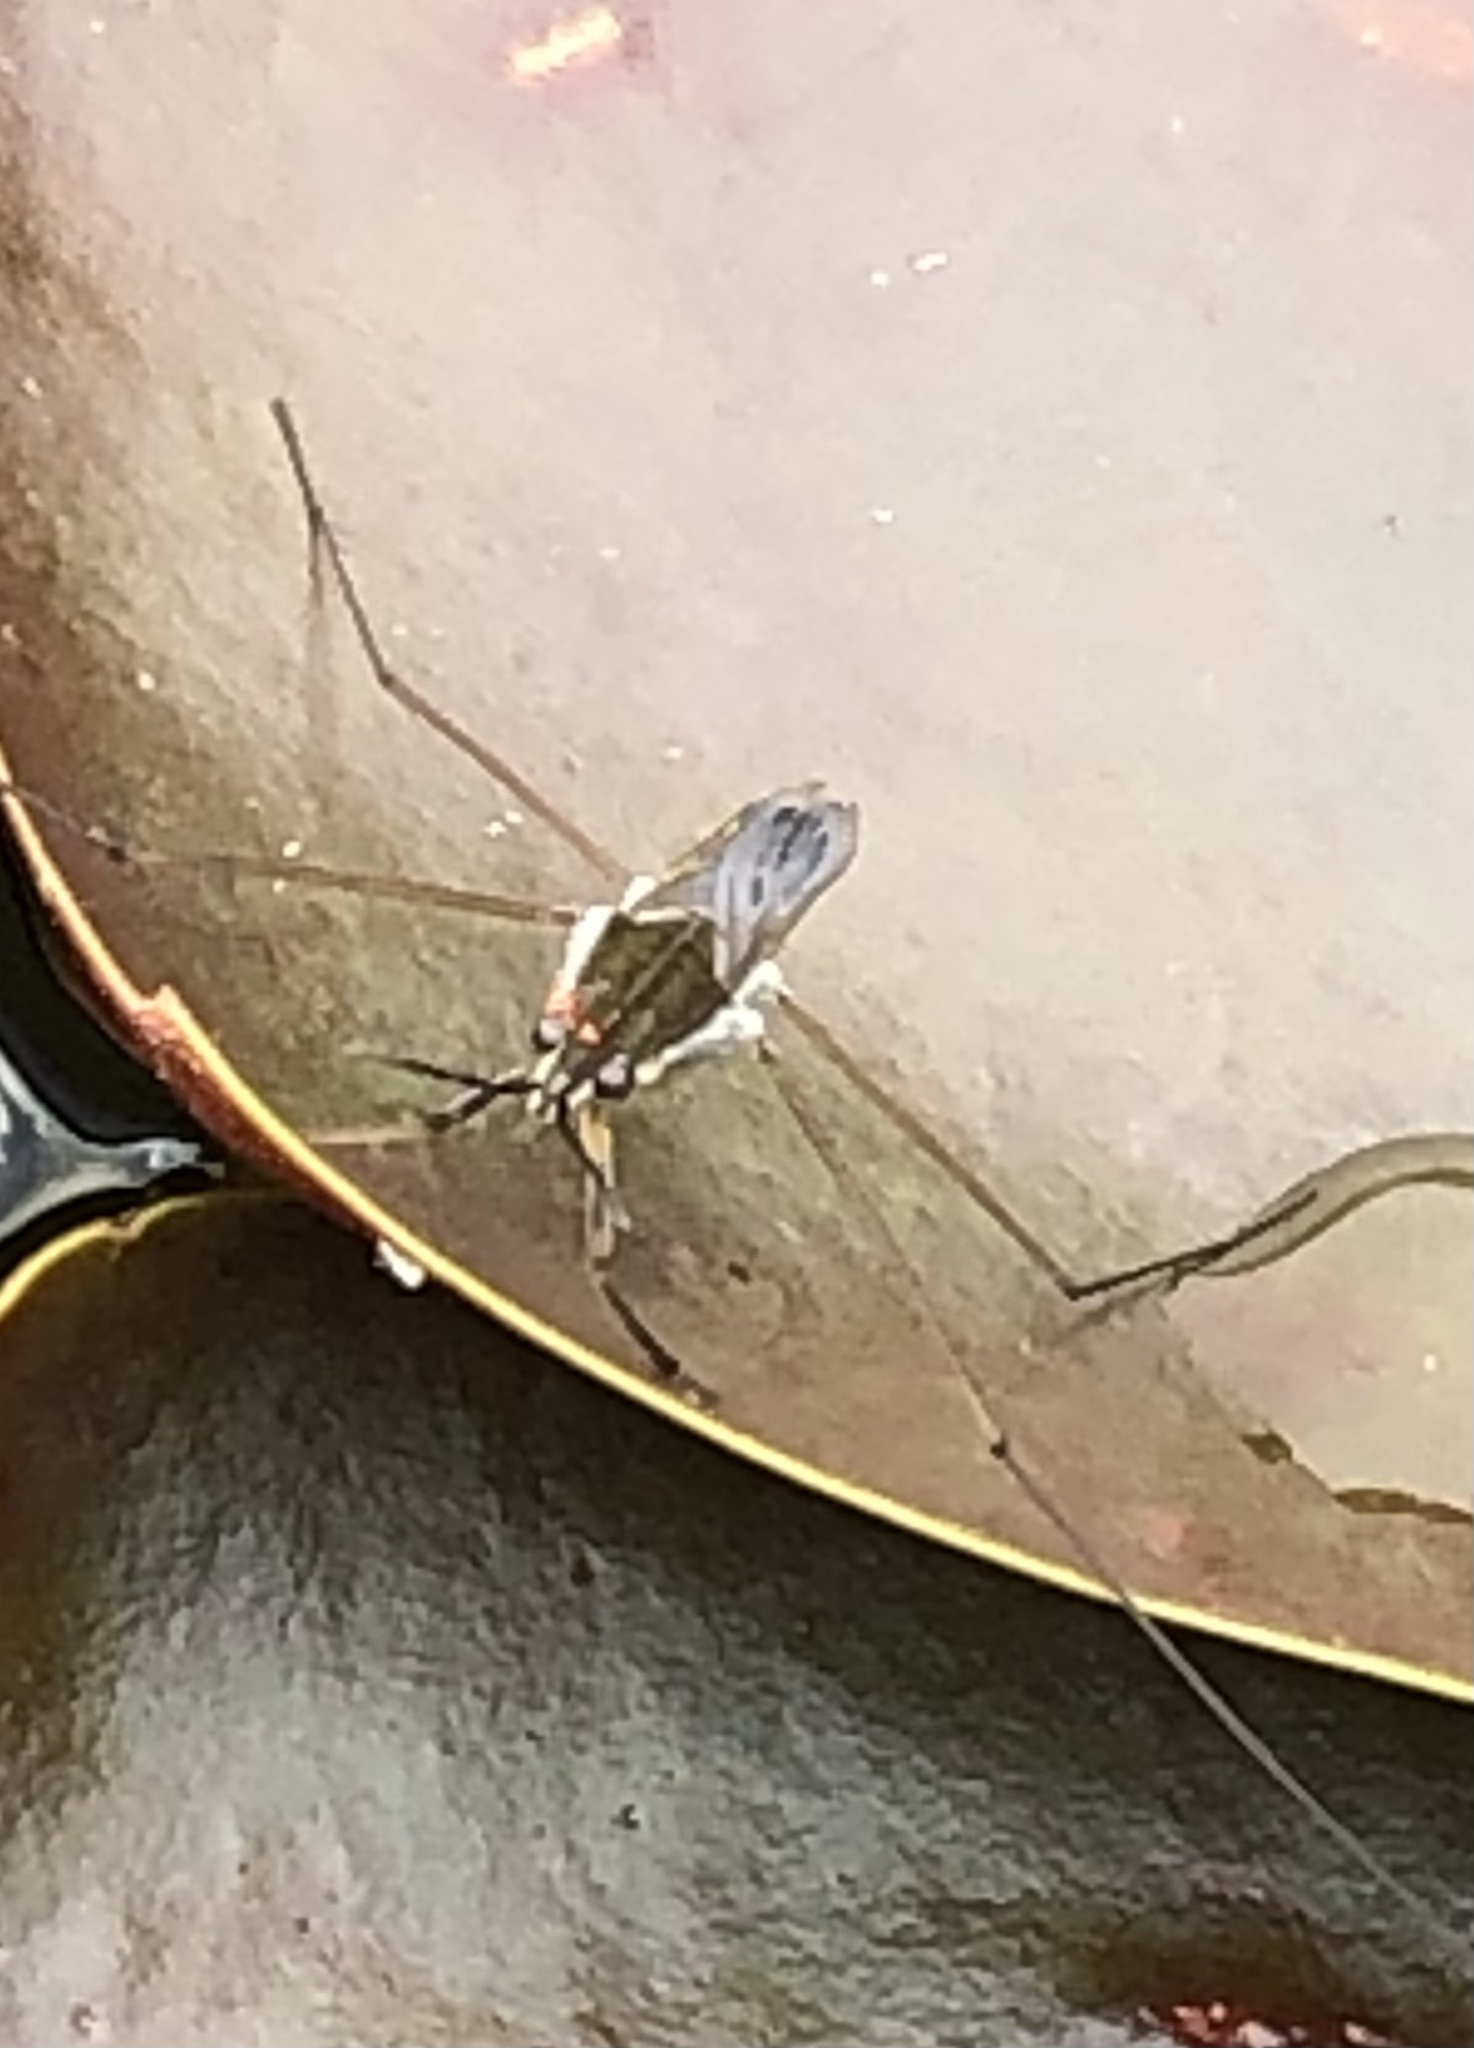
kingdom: Animalia
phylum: Arthropoda
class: Insecta
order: Hemiptera
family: Gerridae
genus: Gerris
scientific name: Gerris
